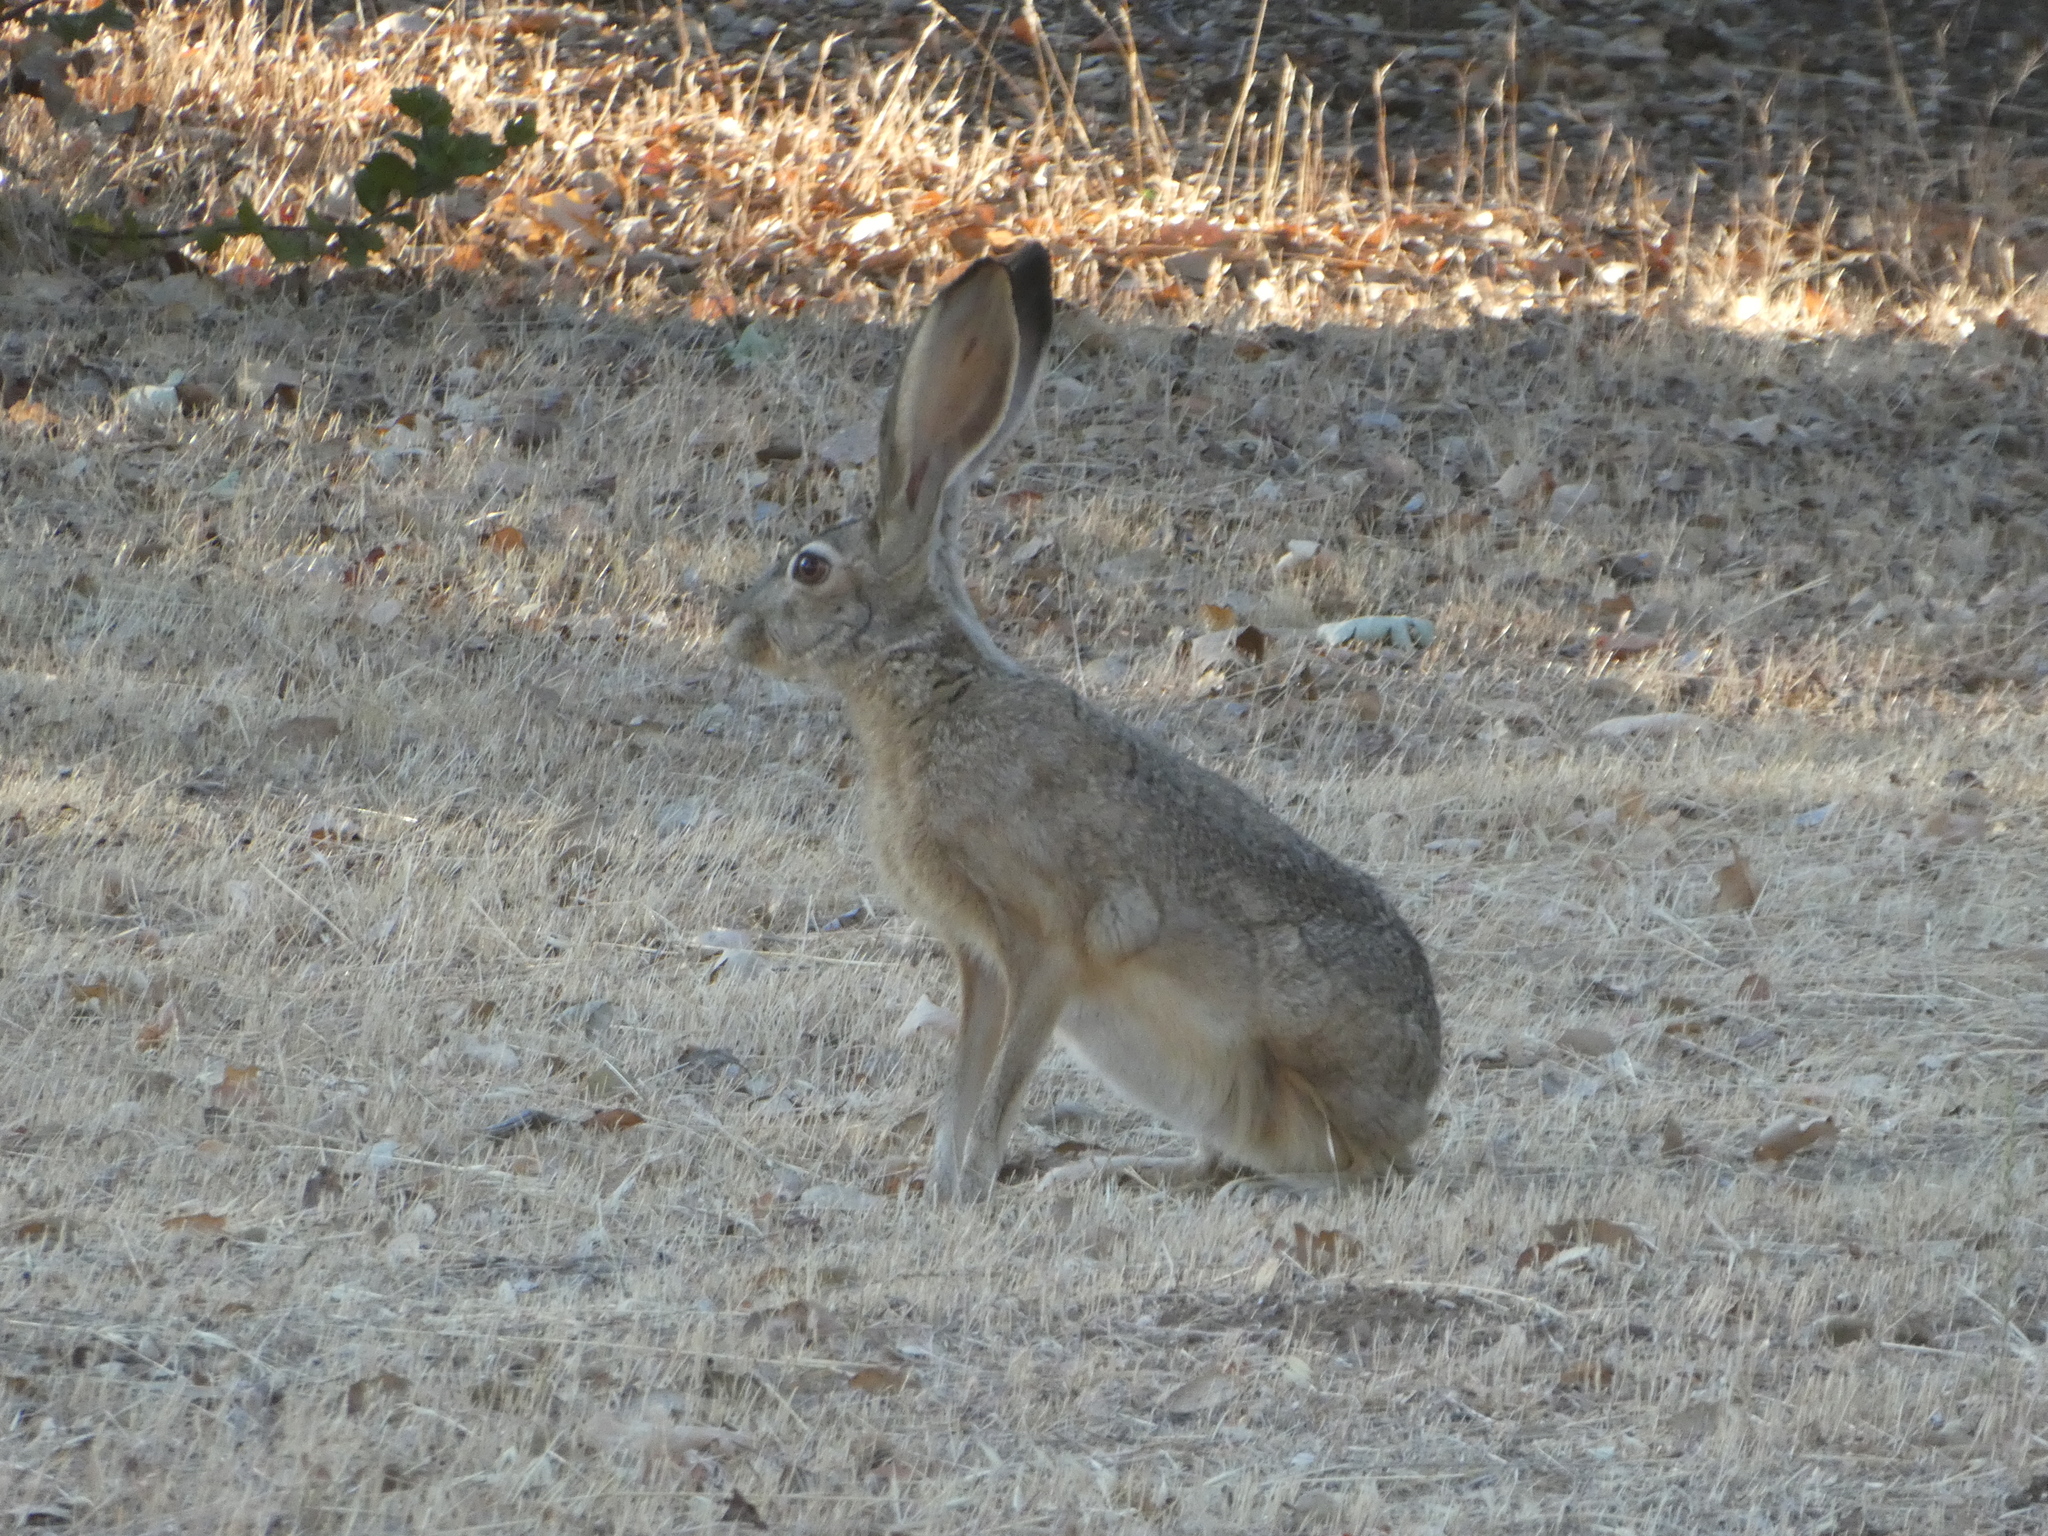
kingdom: Animalia
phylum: Chordata
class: Mammalia
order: Lagomorpha
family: Leporidae
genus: Lepus
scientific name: Lepus californicus
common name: Black-tailed jackrabbit
